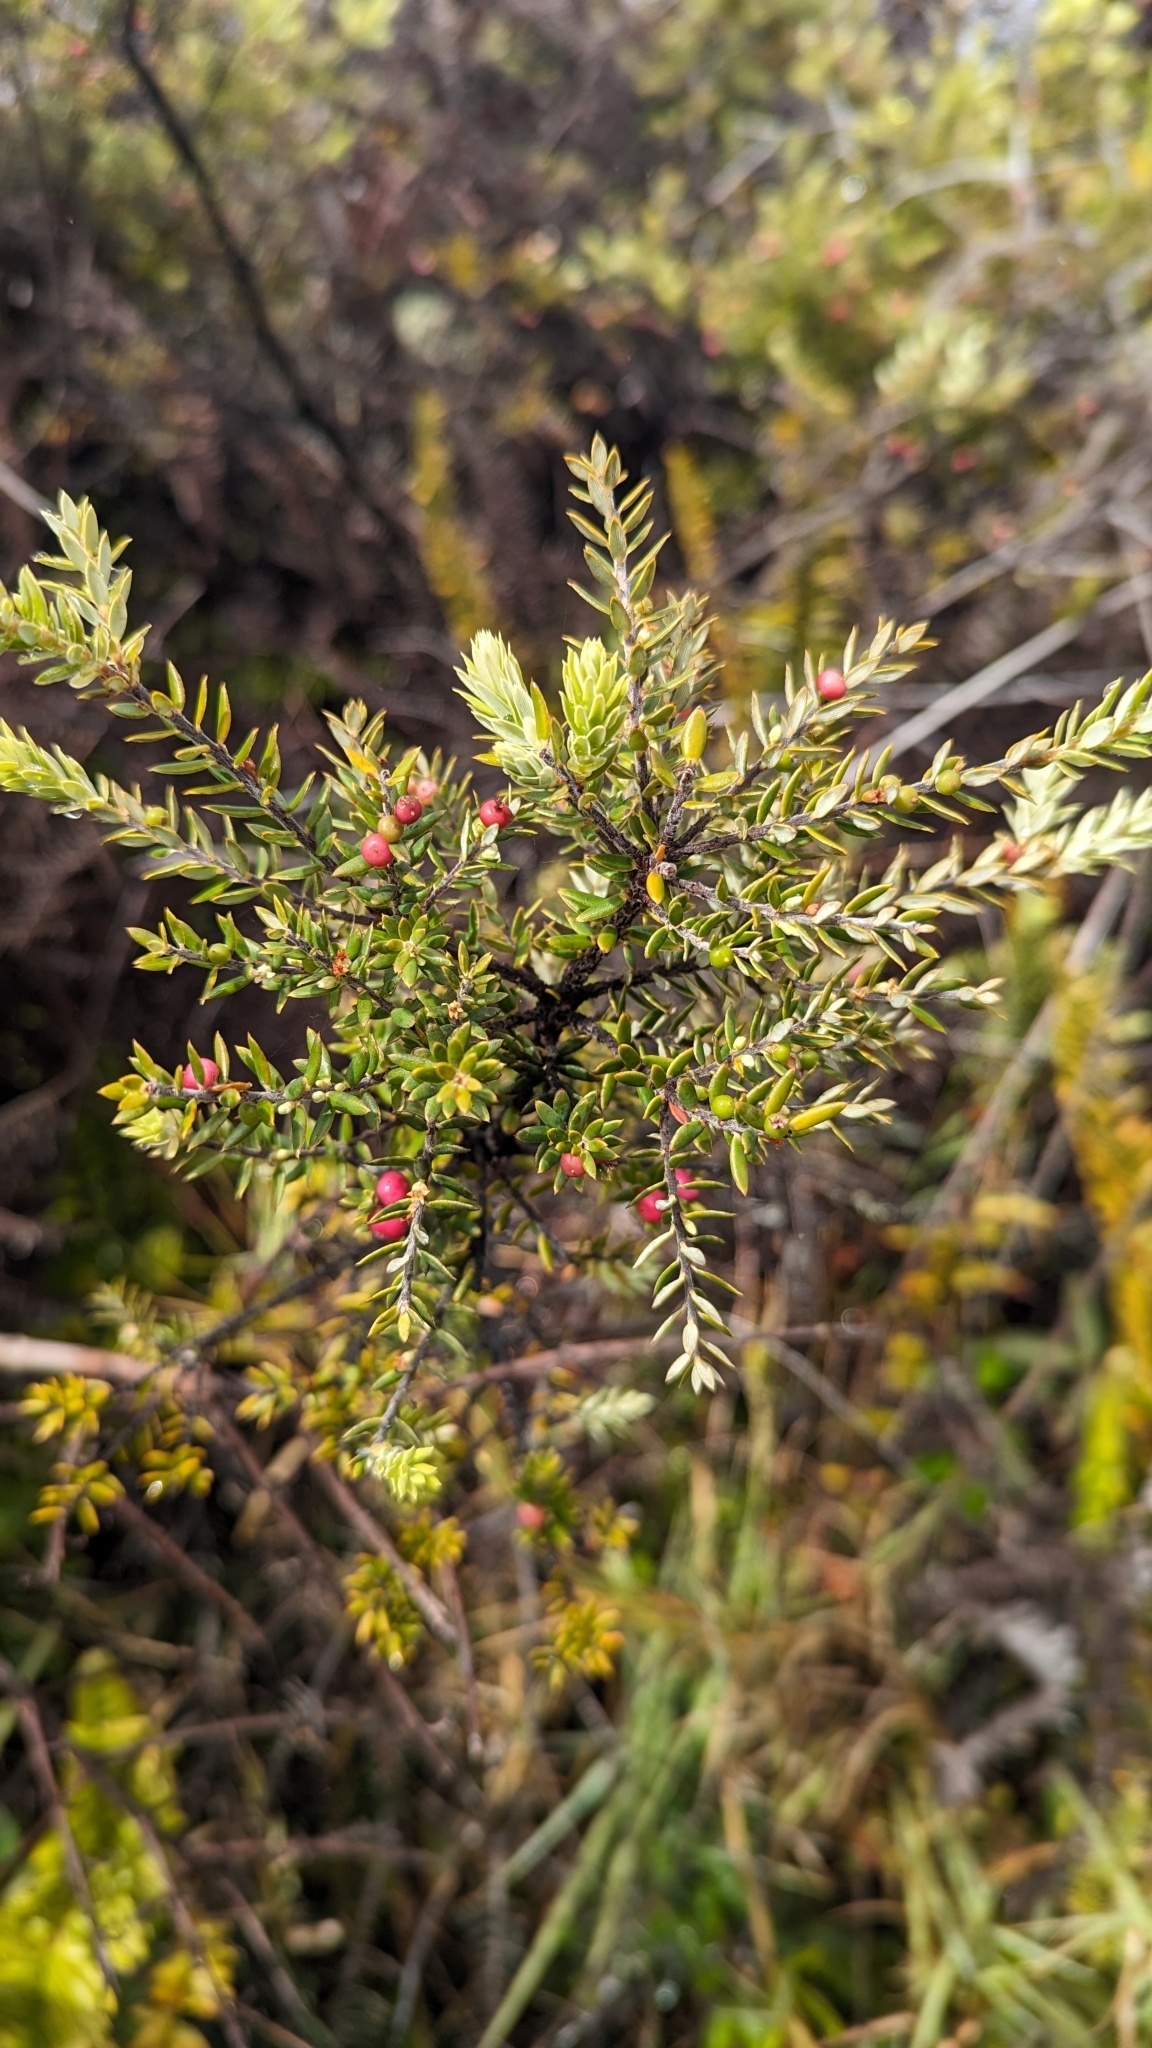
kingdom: Plantae
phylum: Tracheophyta
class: Magnoliopsida
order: Ericales
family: Ericaceae
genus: Leptecophylla
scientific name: Leptecophylla tameiameiae
